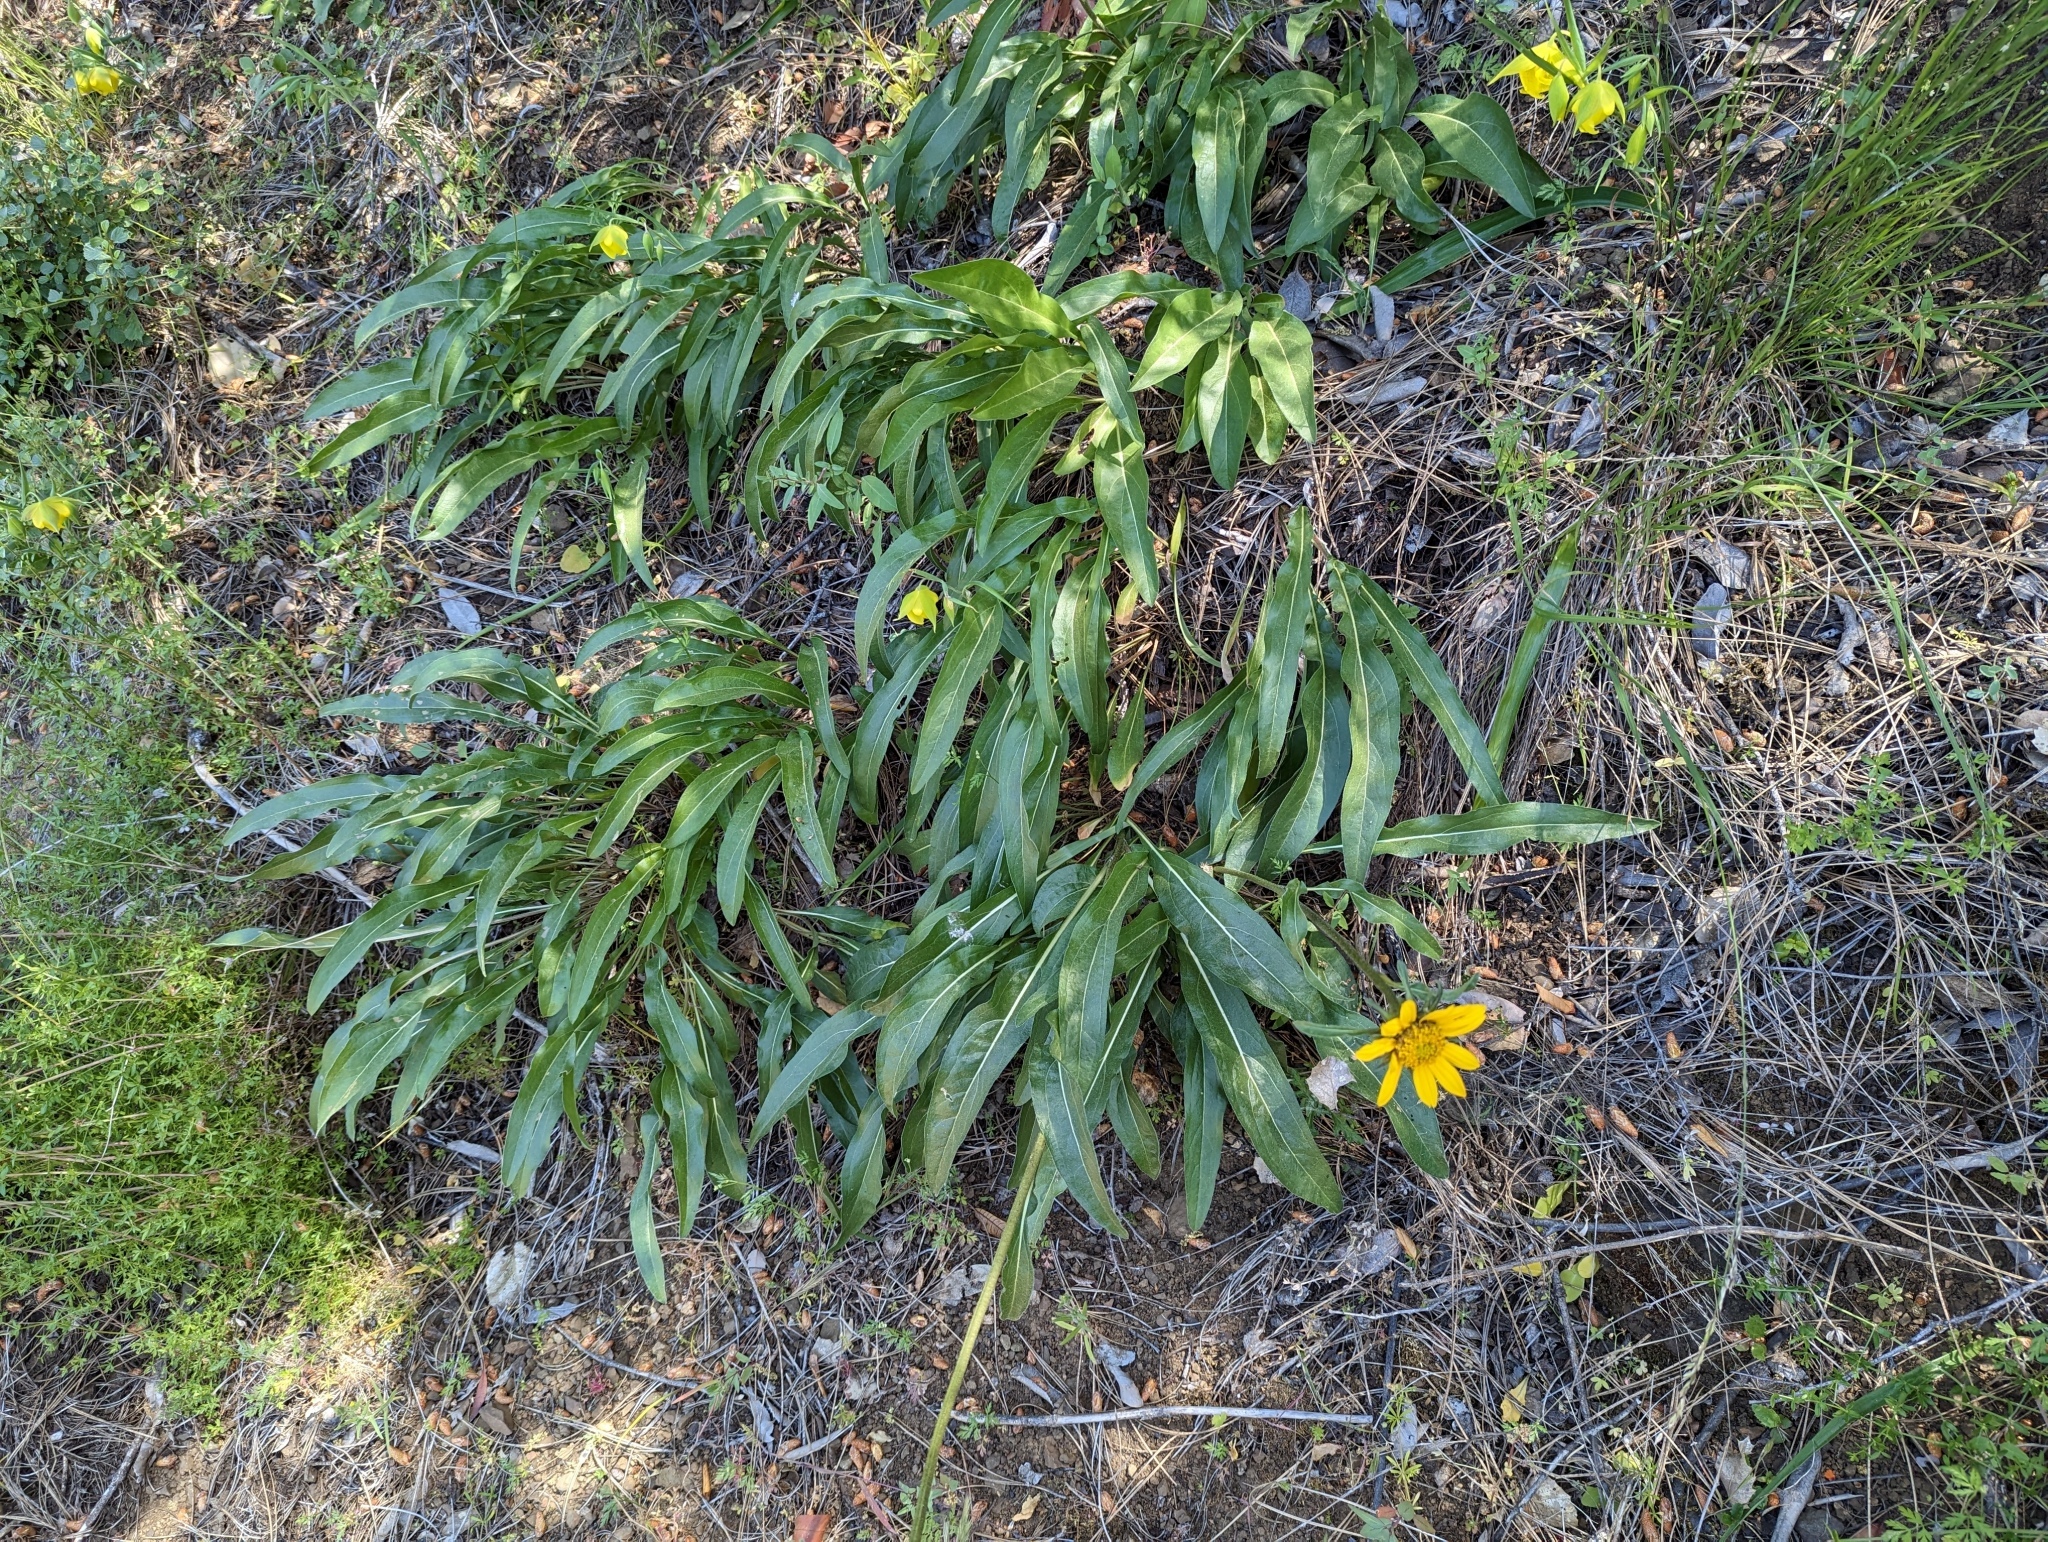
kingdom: Plantae
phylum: Tracheophyta
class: Magnoliopsida
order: Asterales
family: Asteraceae
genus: Helianthella
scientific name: Helianthella castanea
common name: Diablo helianthella
